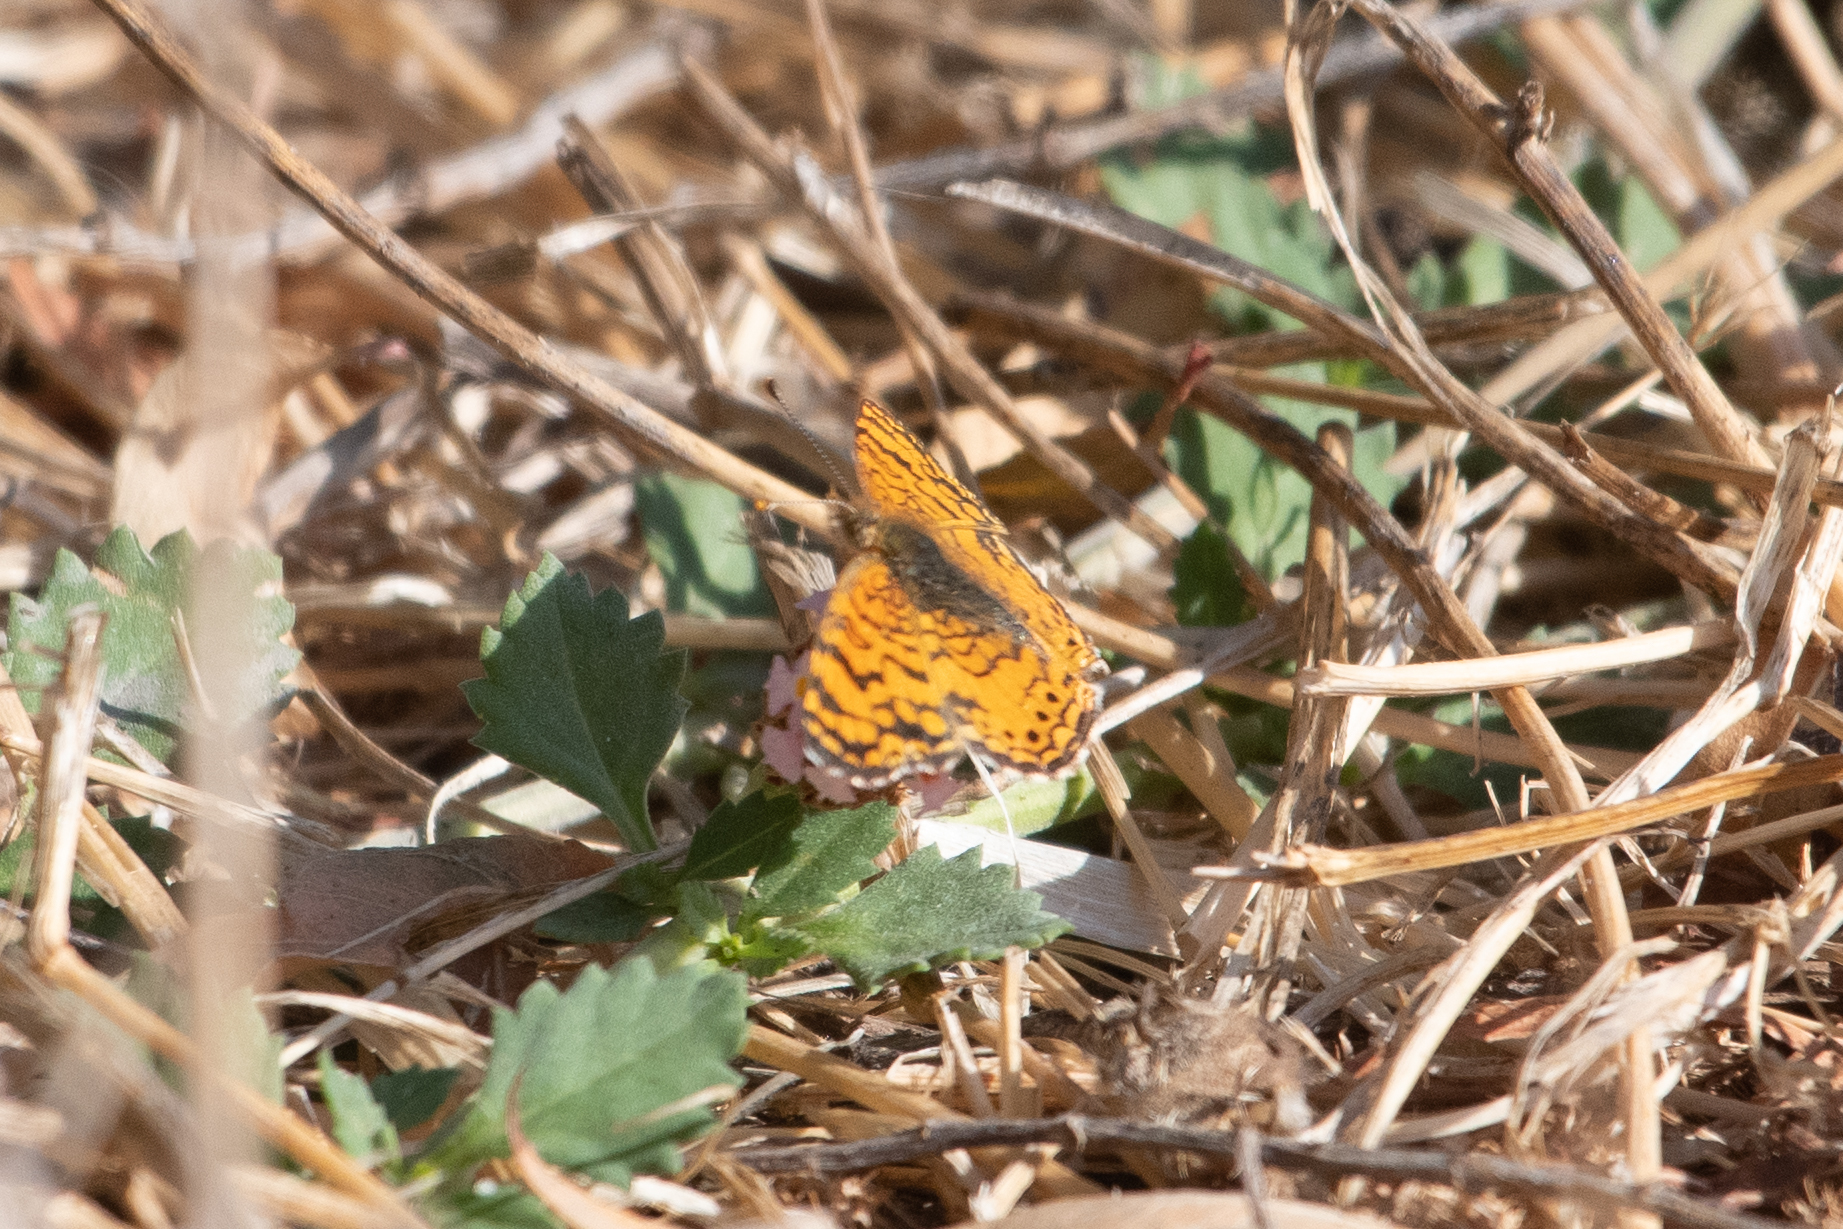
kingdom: Animalia
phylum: Arthropoda
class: Insecta
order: Lepidoptera
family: Nymphalidae
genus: Eresia
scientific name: Eresia aveyrona
